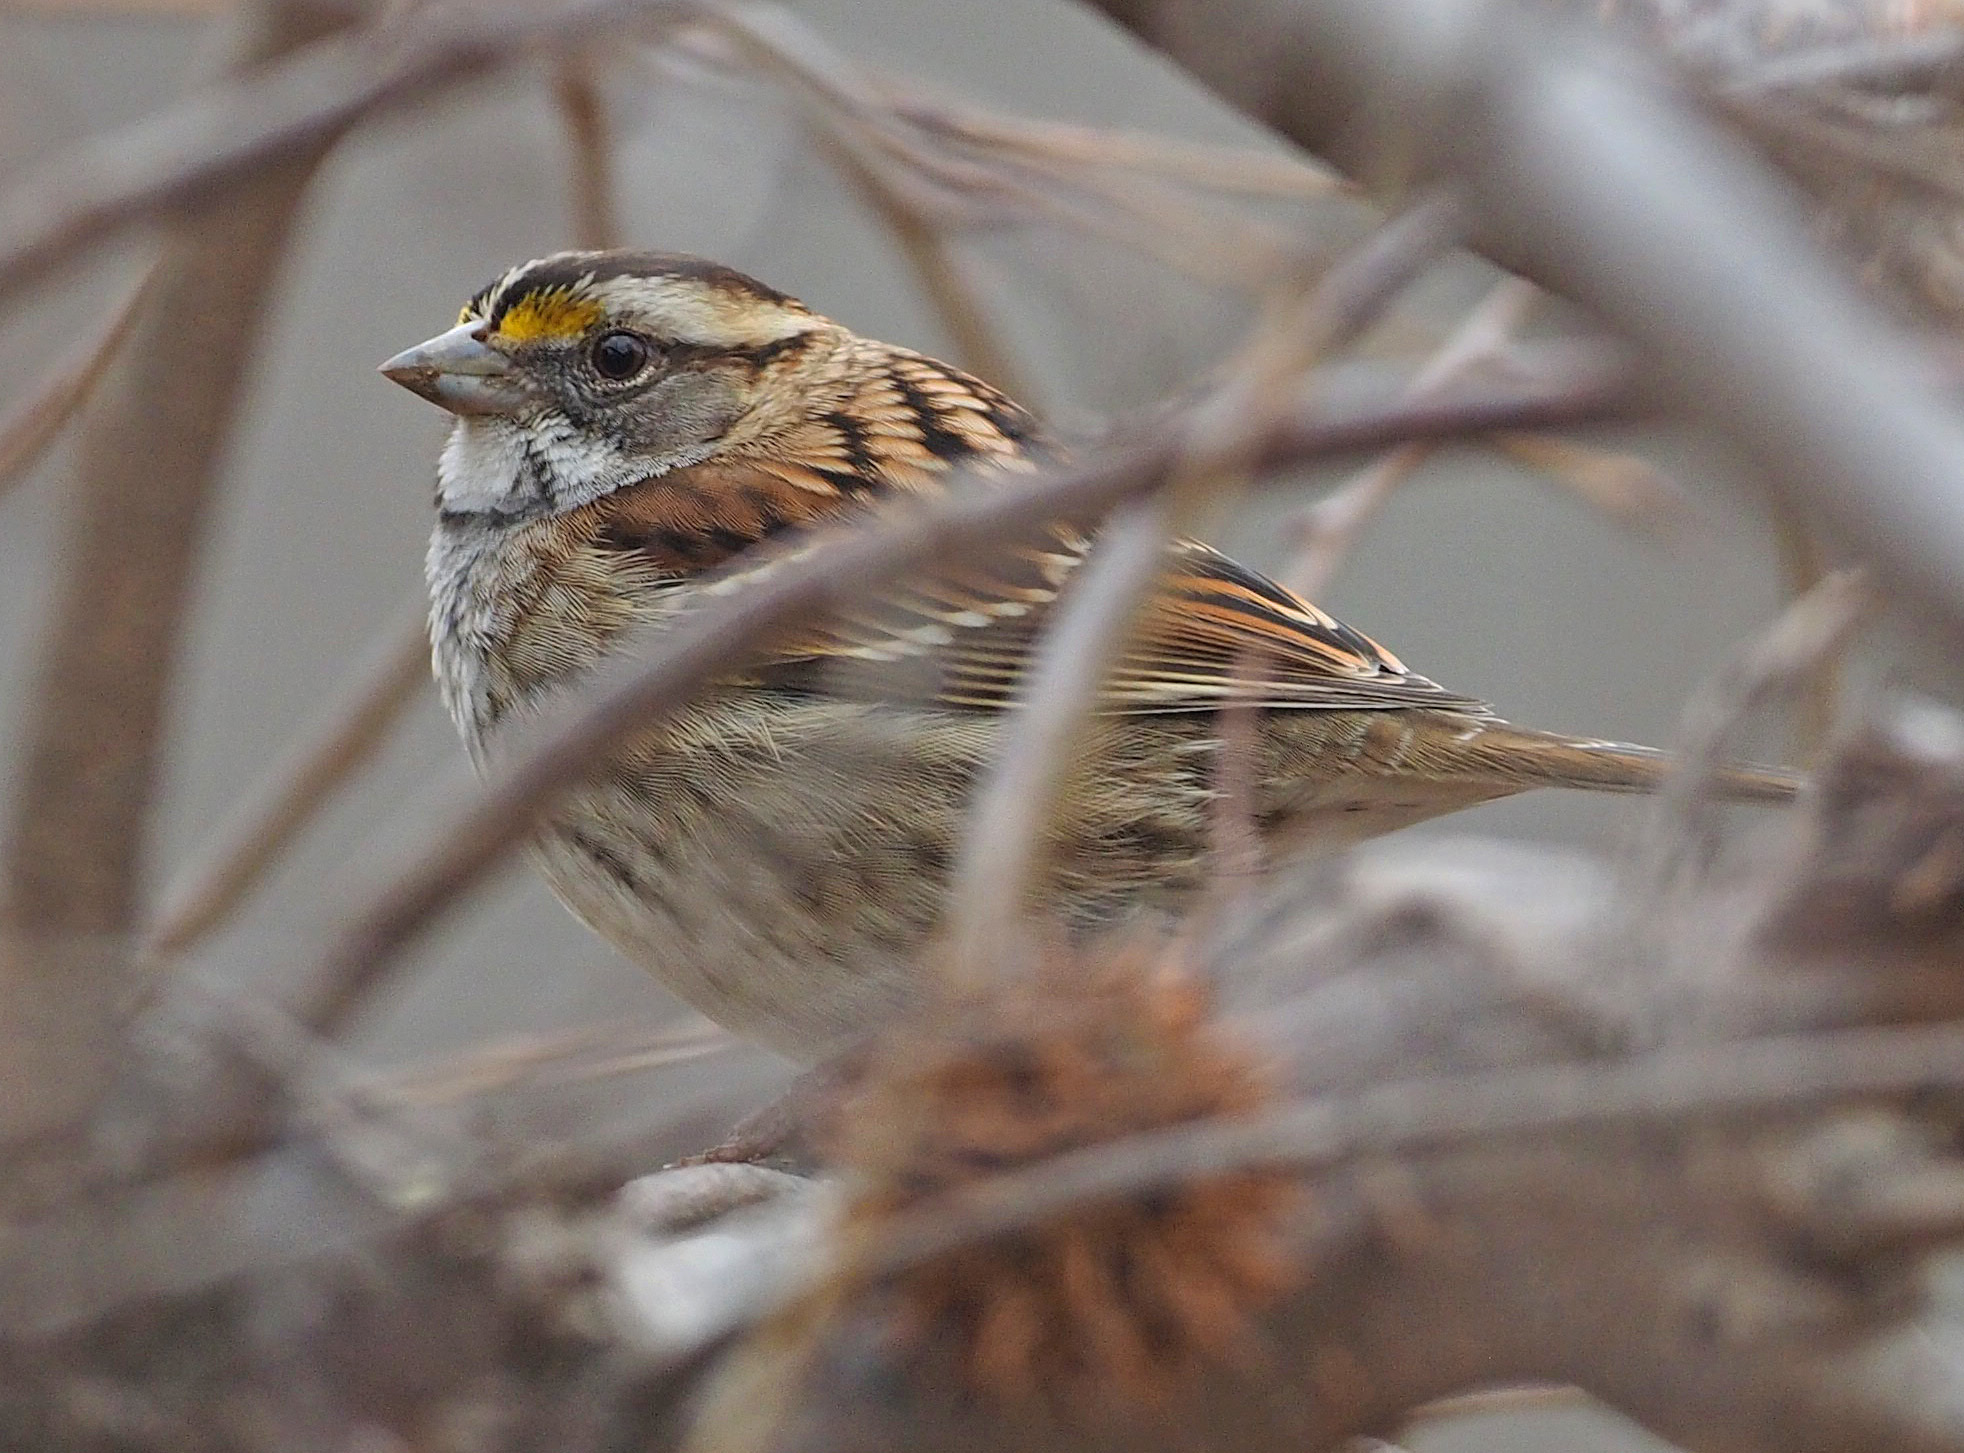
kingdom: Animalia
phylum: Chordata
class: Aves
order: Passeriformes
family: Passerellidae
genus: Zonotrichia
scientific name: Zonotrichia albicollis
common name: White-throated sparrow
